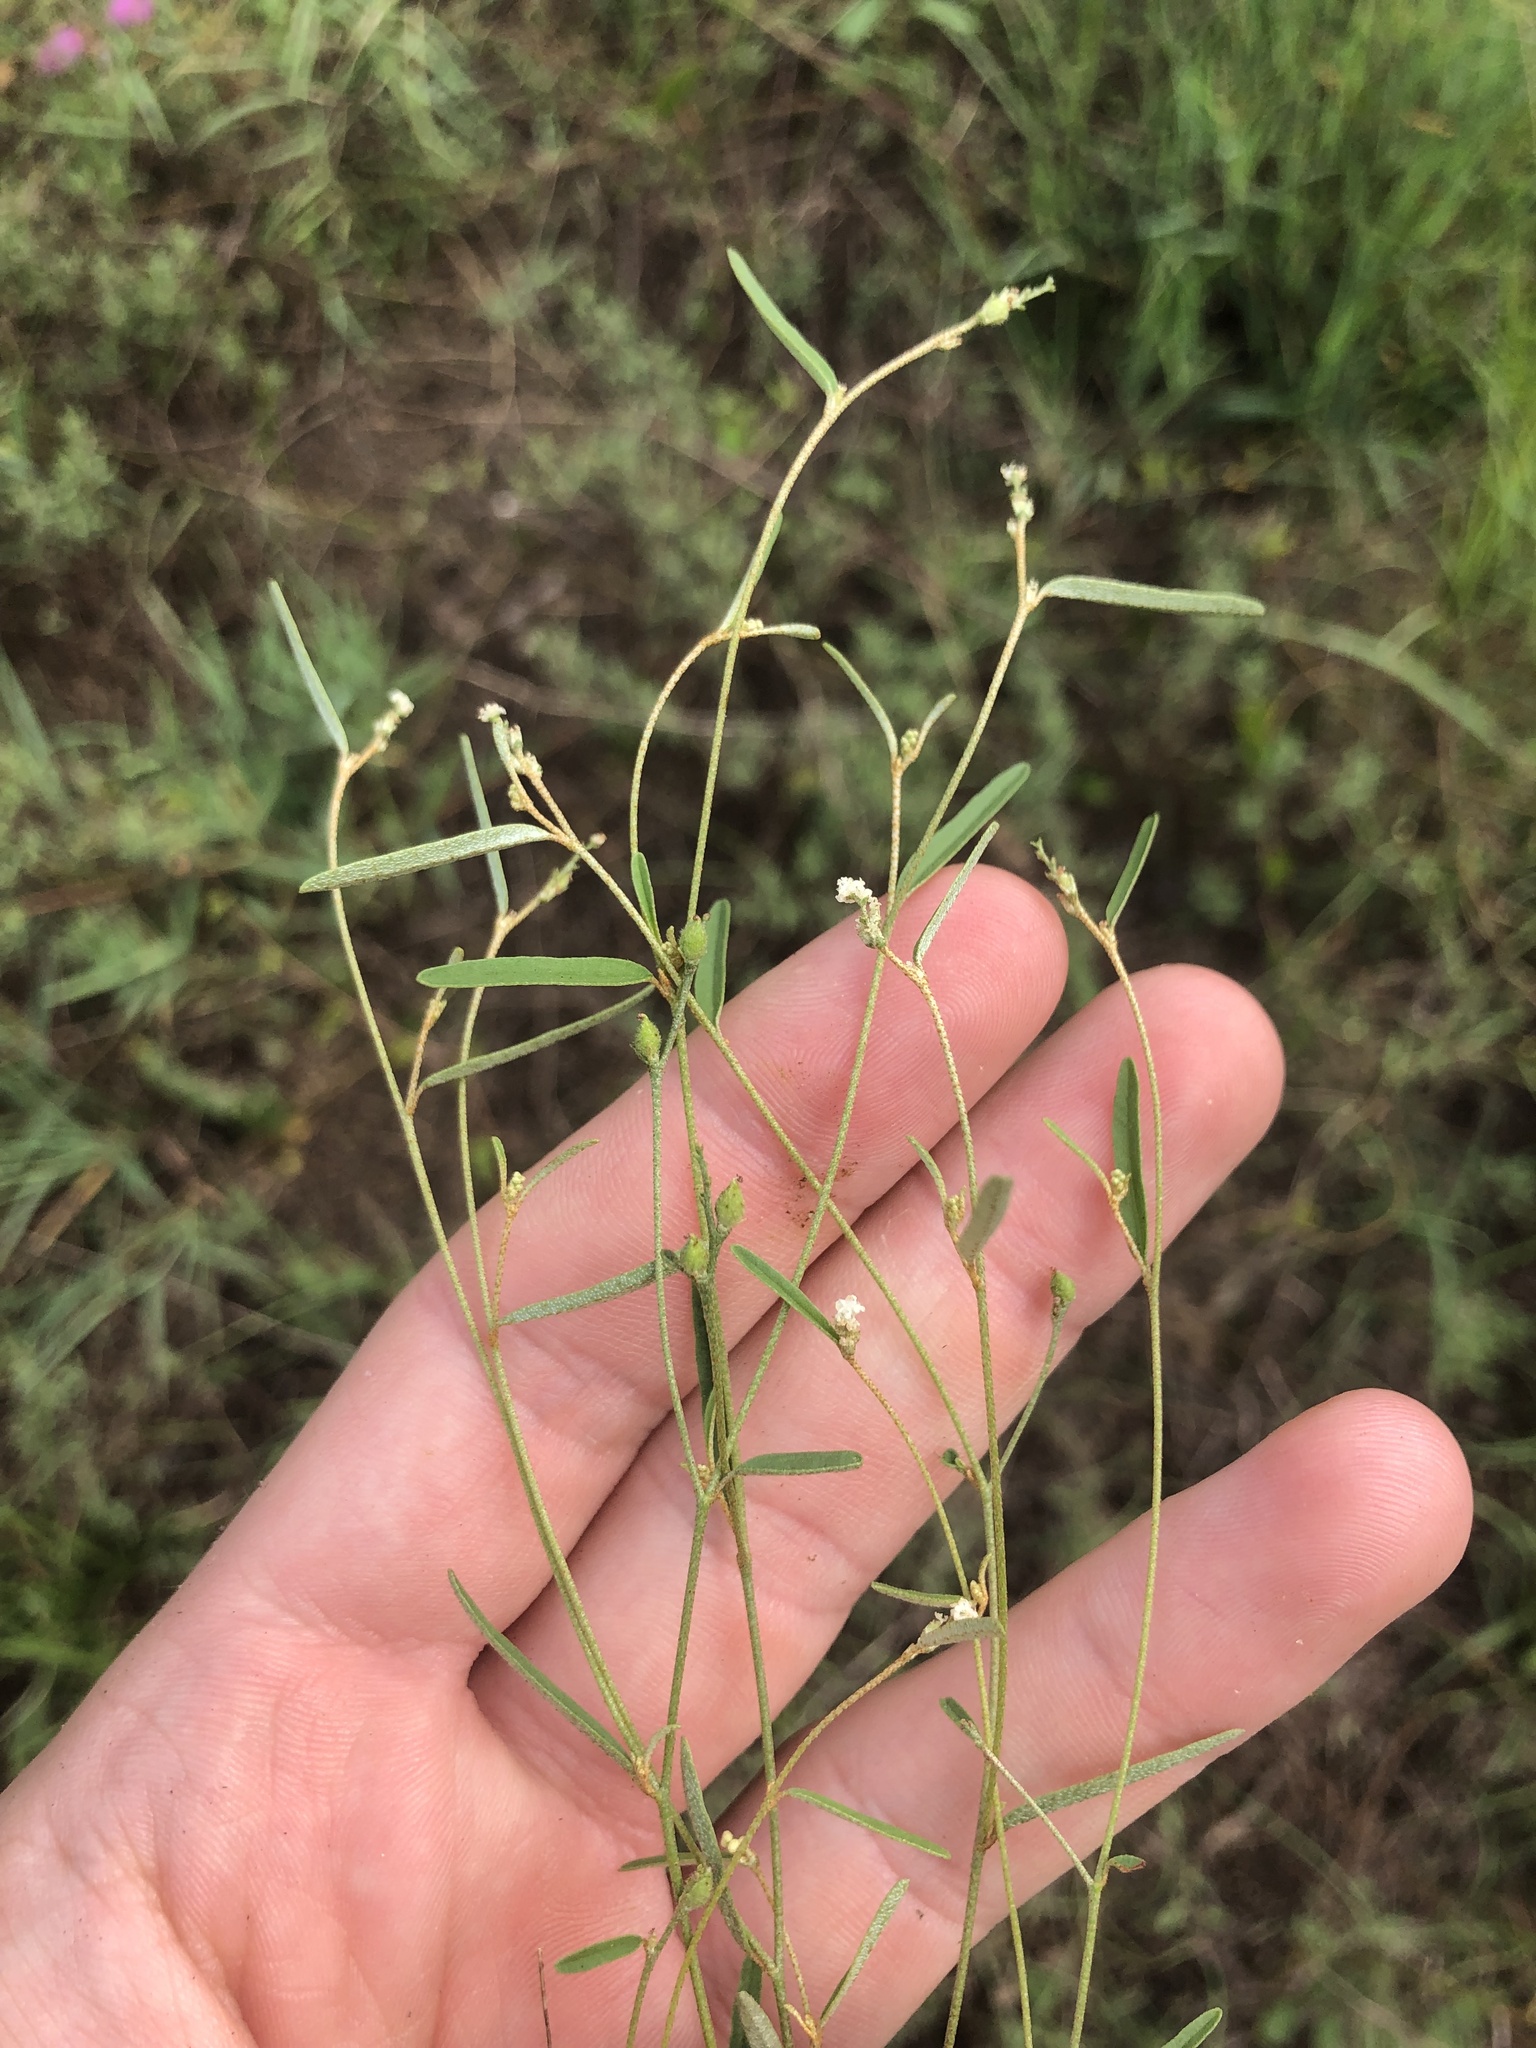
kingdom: Plantae
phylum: Tracheophyta
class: Magnoliopsida
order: Malpighiales
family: Euphorbiaceae
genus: Croton
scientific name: Croton michauxii
